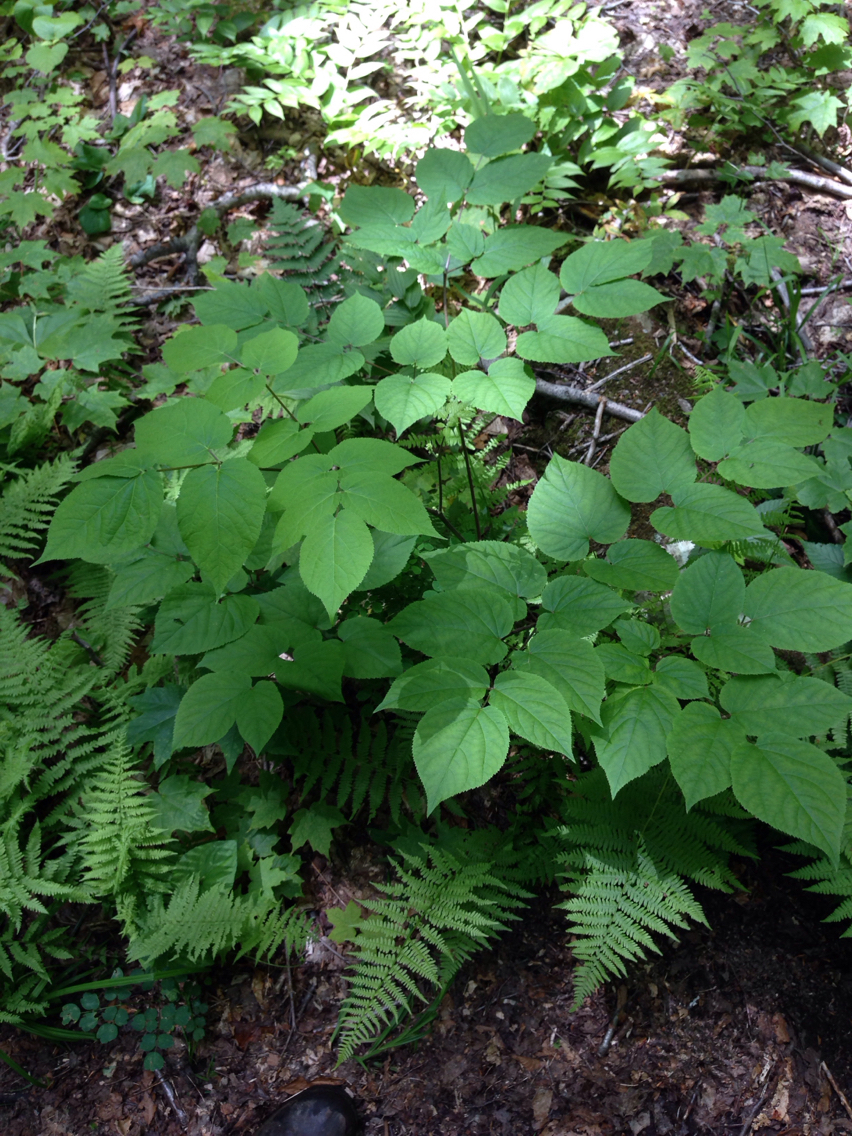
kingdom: Plantae
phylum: Tracheophyta
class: Magnoliopsida
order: Apiales
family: Araliaceae
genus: Aralia
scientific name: Aralia racemosa
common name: American-spikenard
